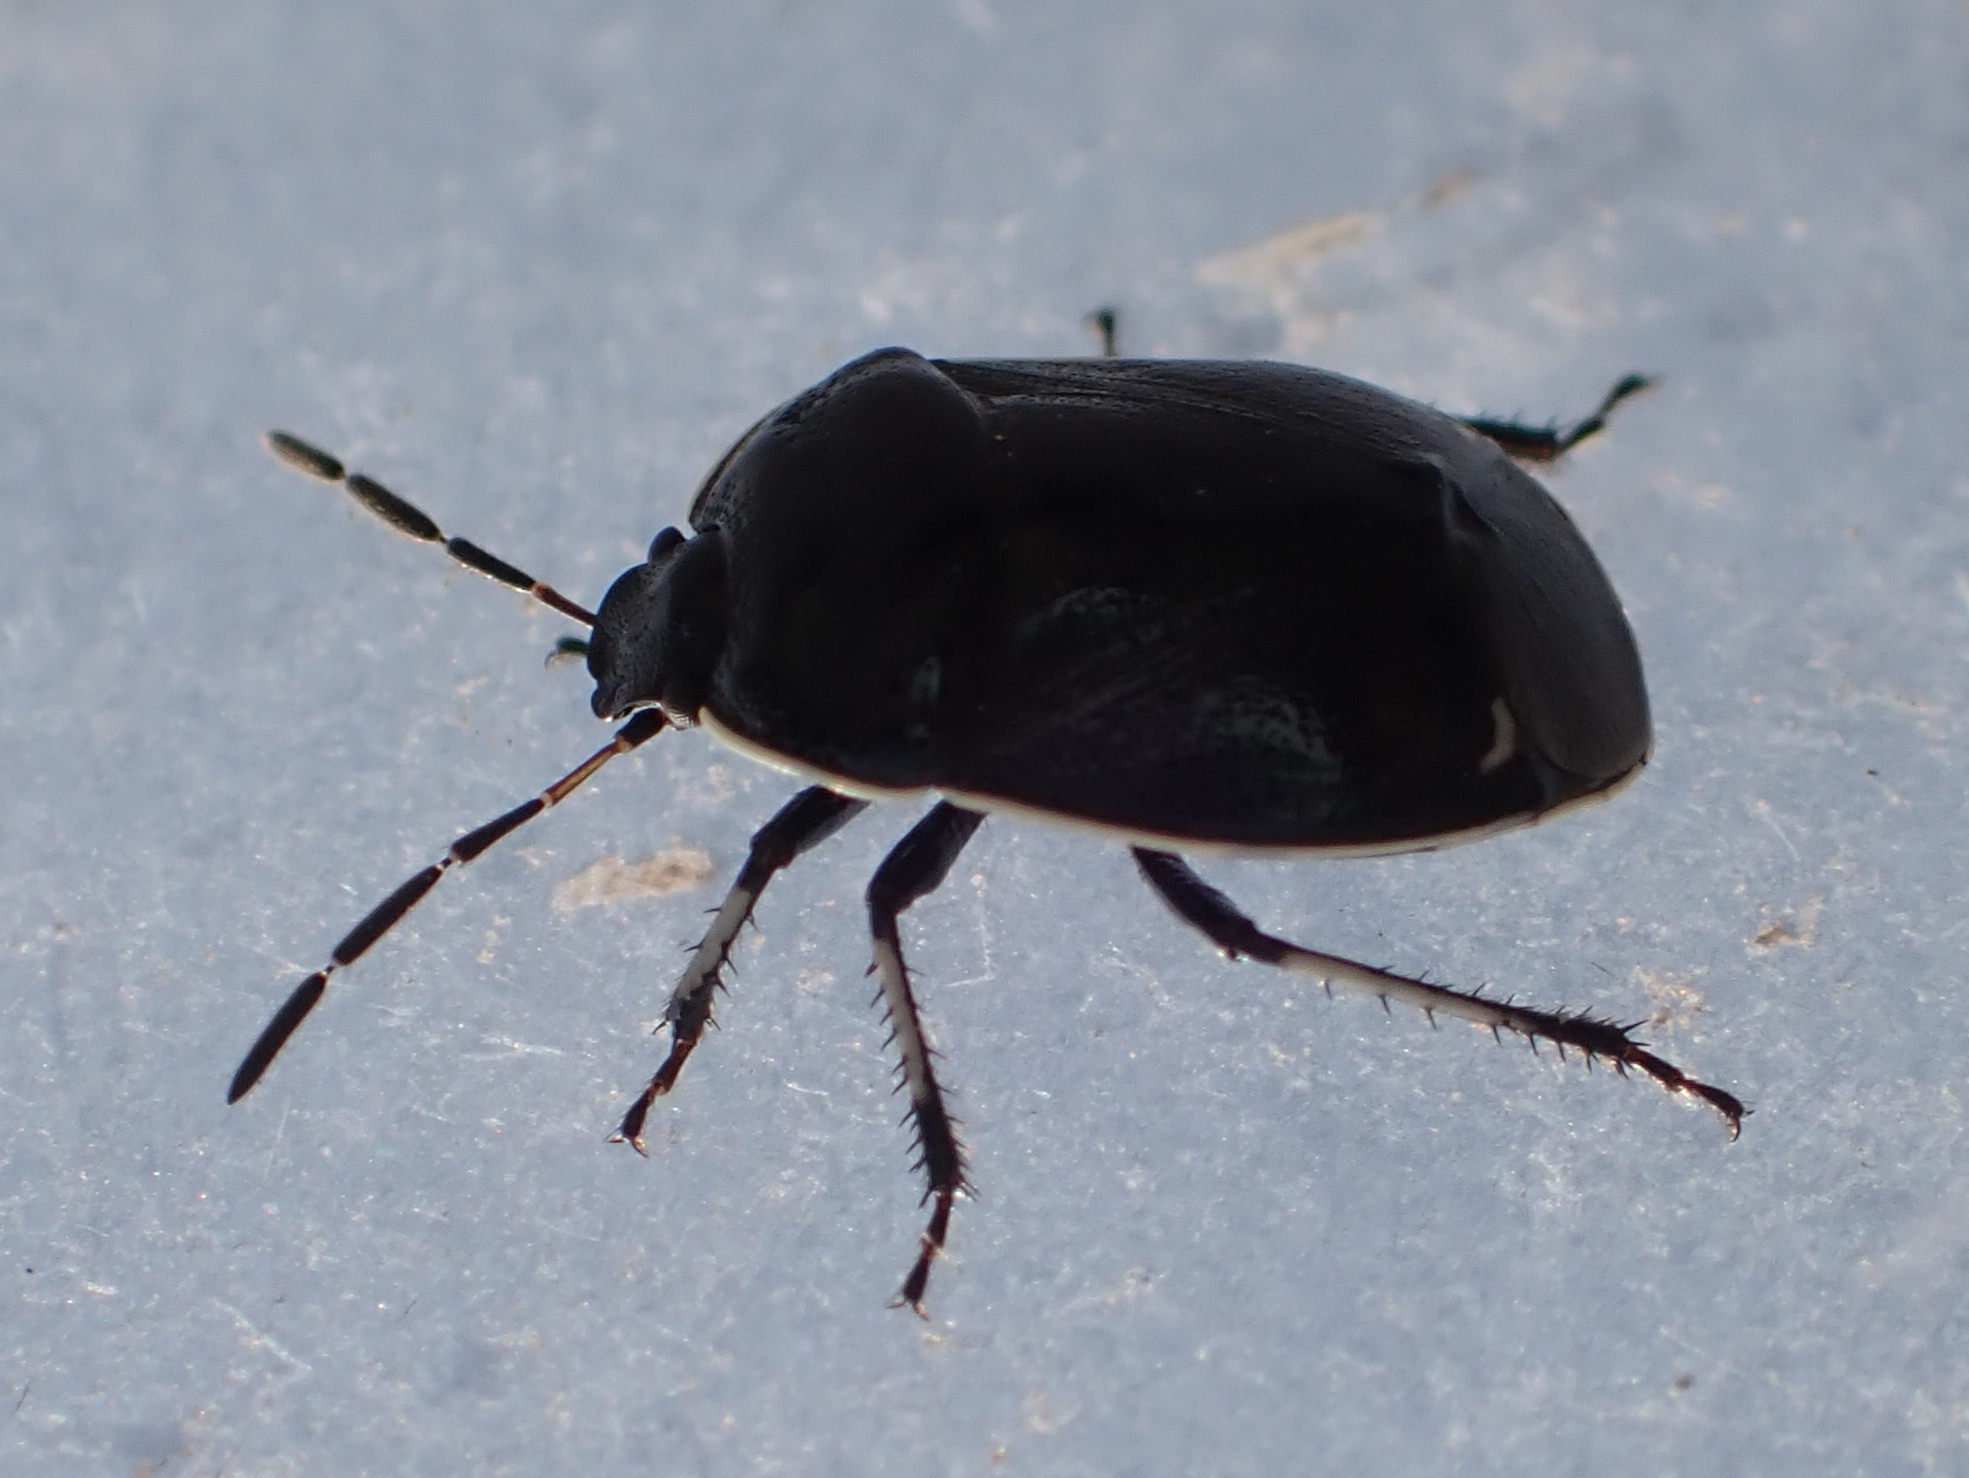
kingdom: Animalia
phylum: Arthropoda
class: Insecta
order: Hemiptera
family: Cydnidae
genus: Sehirus
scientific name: Sehirus cinctus
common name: White-margined burrower bug
